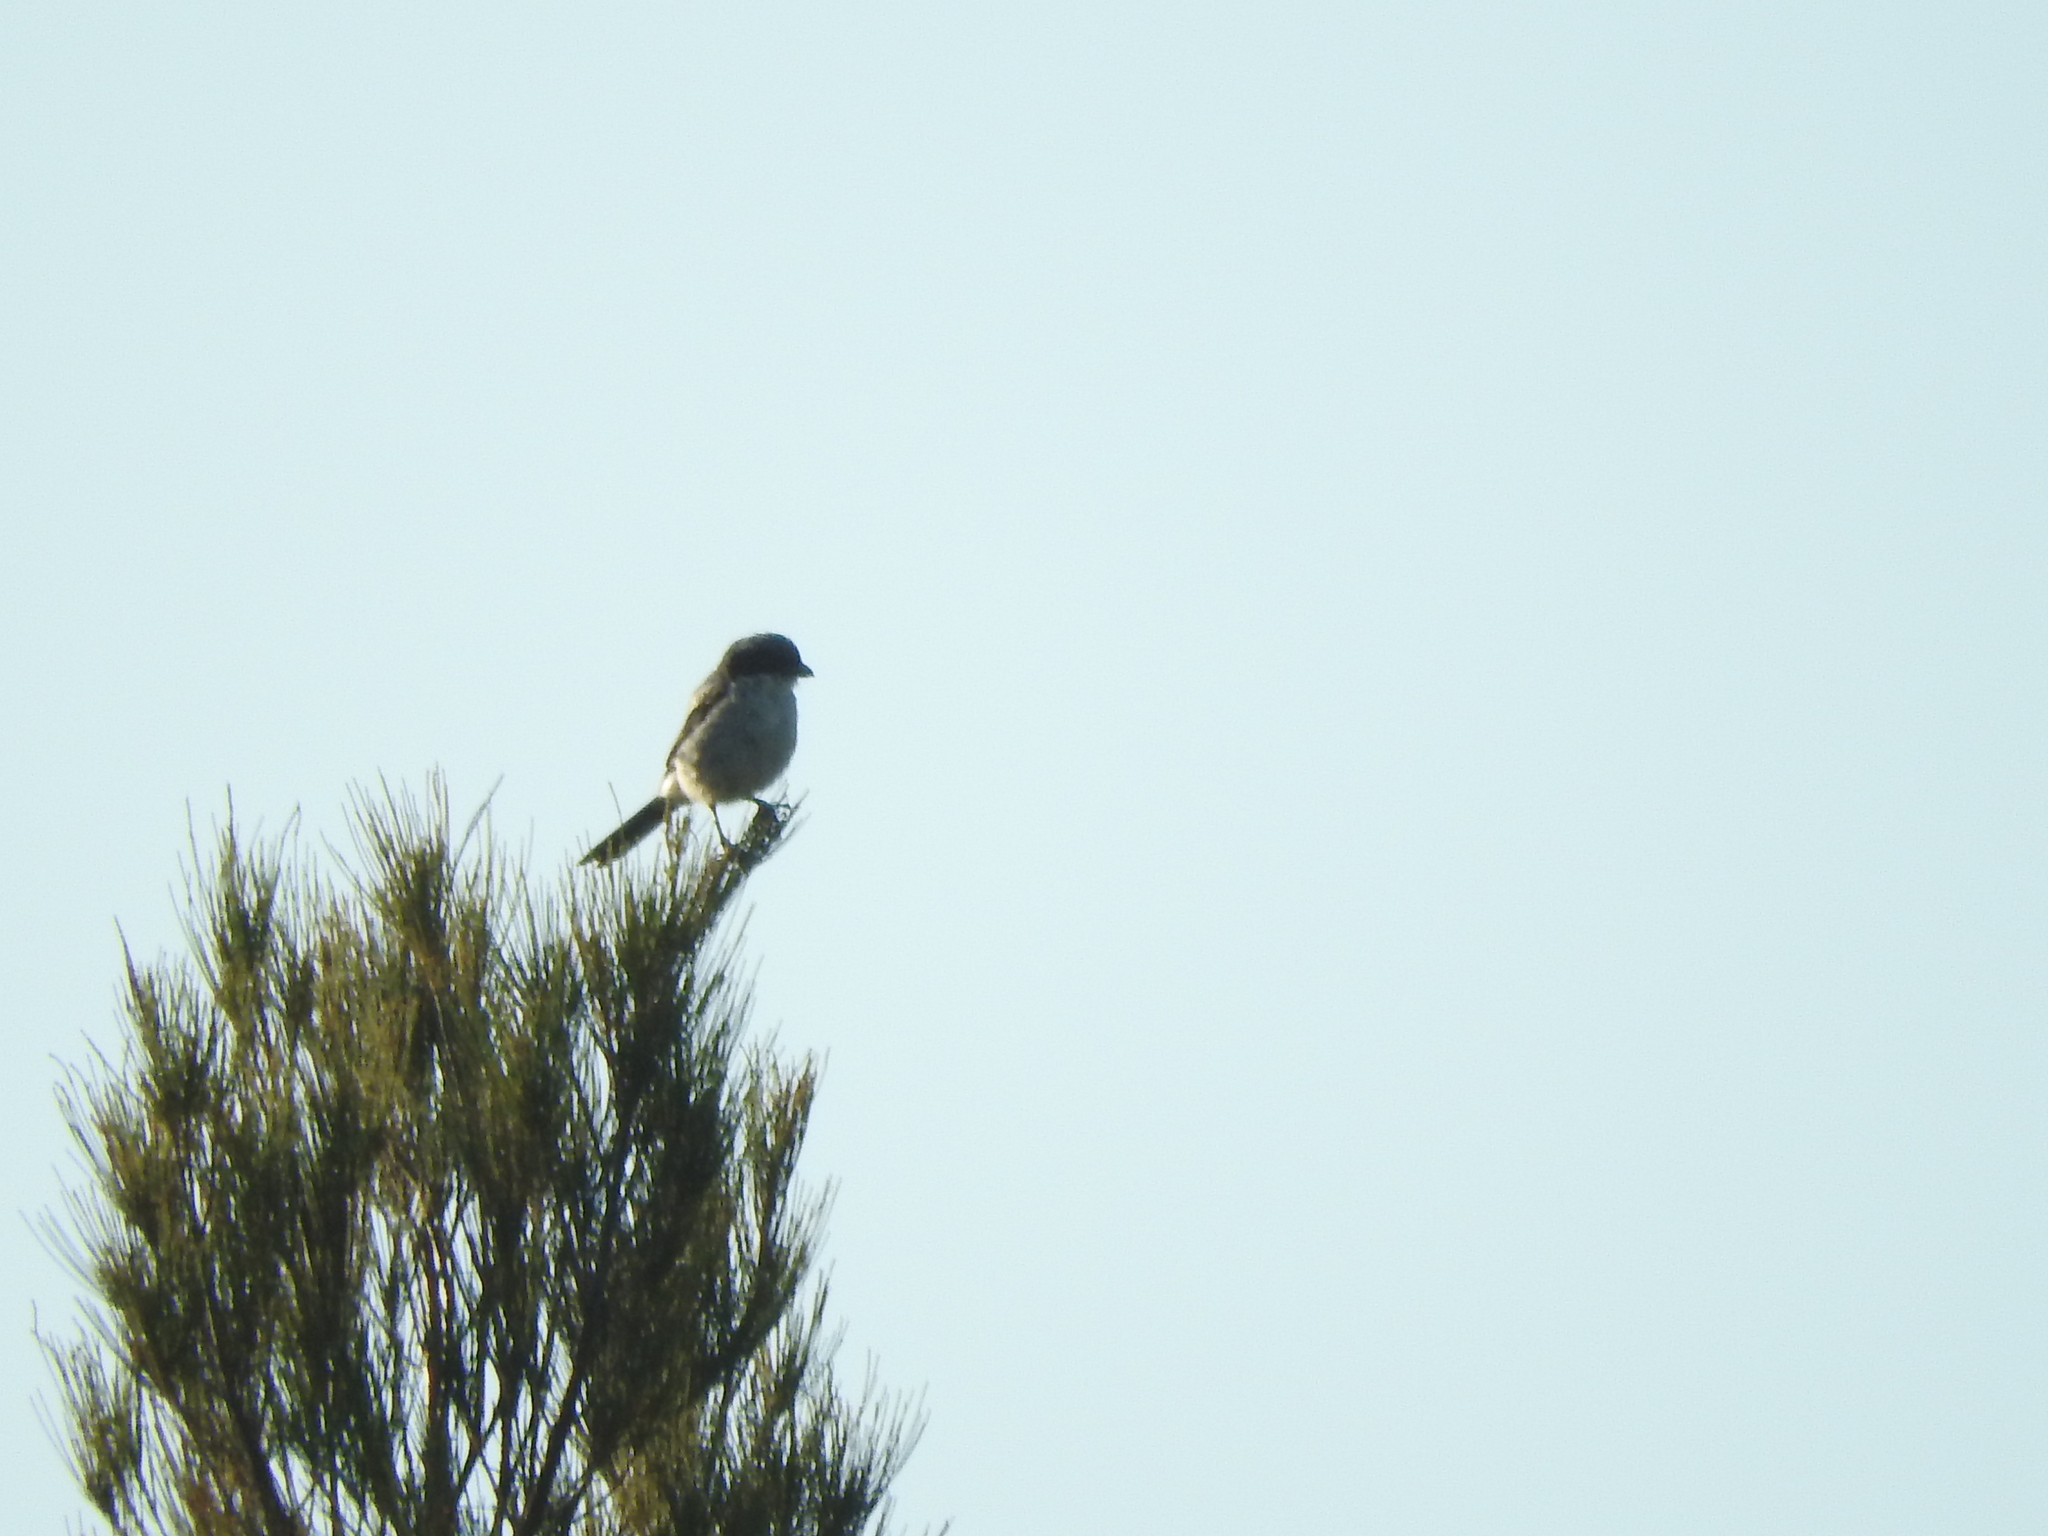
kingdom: Animalia
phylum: Chordata
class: Aves
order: Passeriformes
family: Laniidae
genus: Lanius
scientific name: Lanius ludovicianus
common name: Loggerhead shrike
